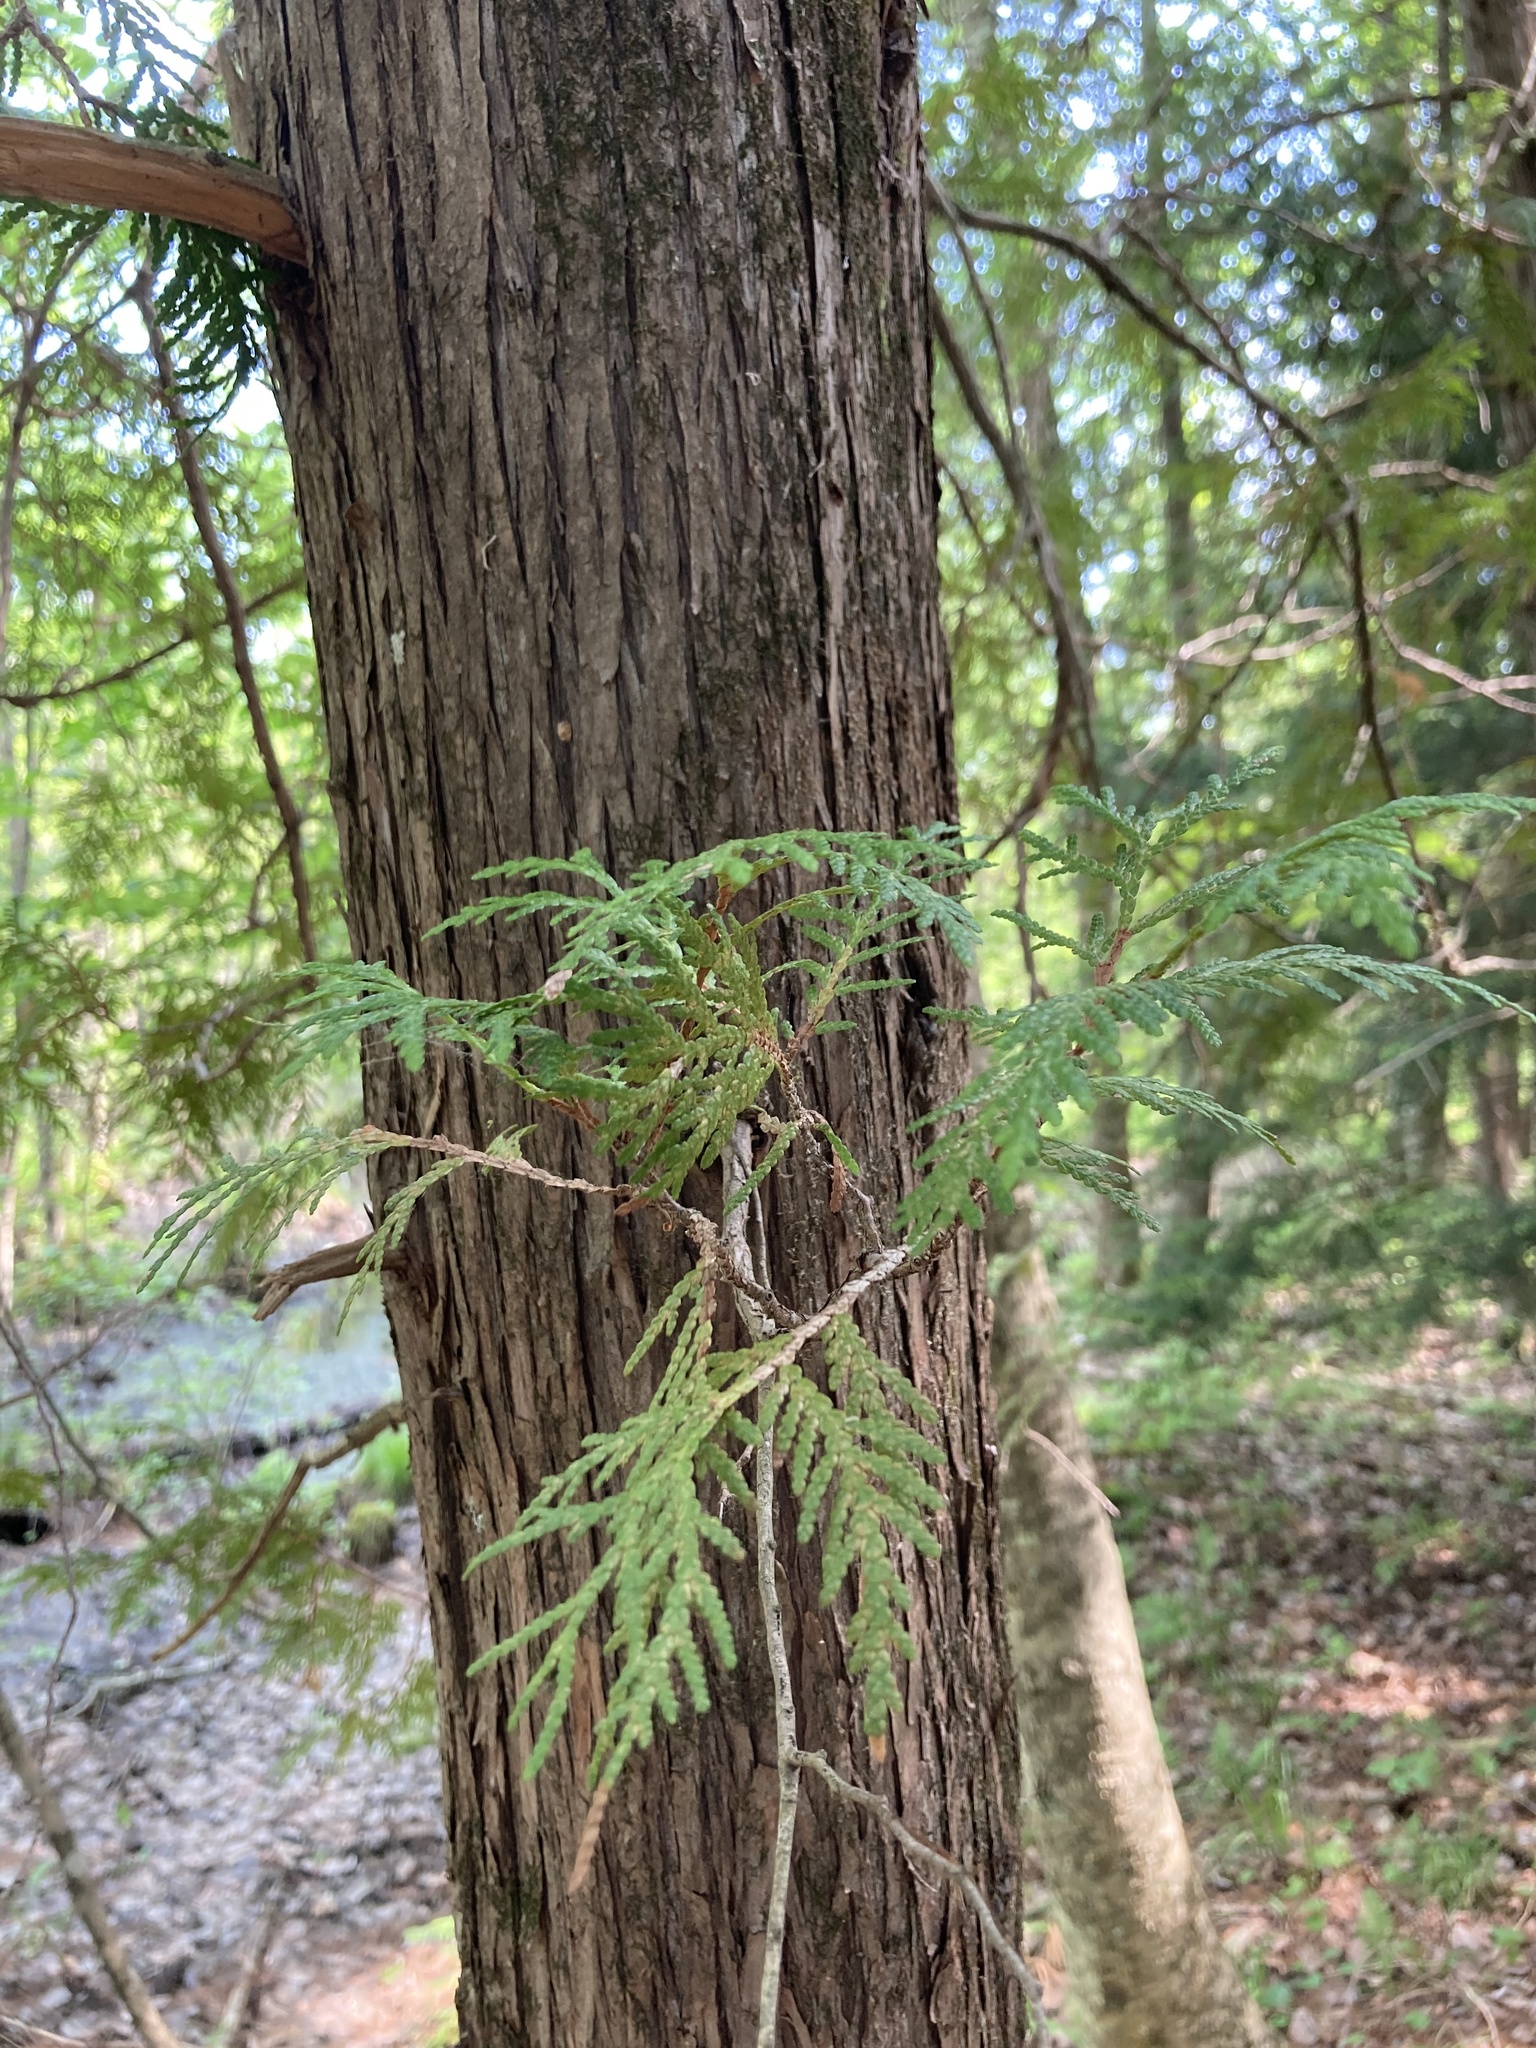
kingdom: Plantae
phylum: Tracheophyta
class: Pinopsida
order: Pinales
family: Cupressaceae
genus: Thuja
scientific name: Thuja occidentalis
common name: Northern white-cedar
